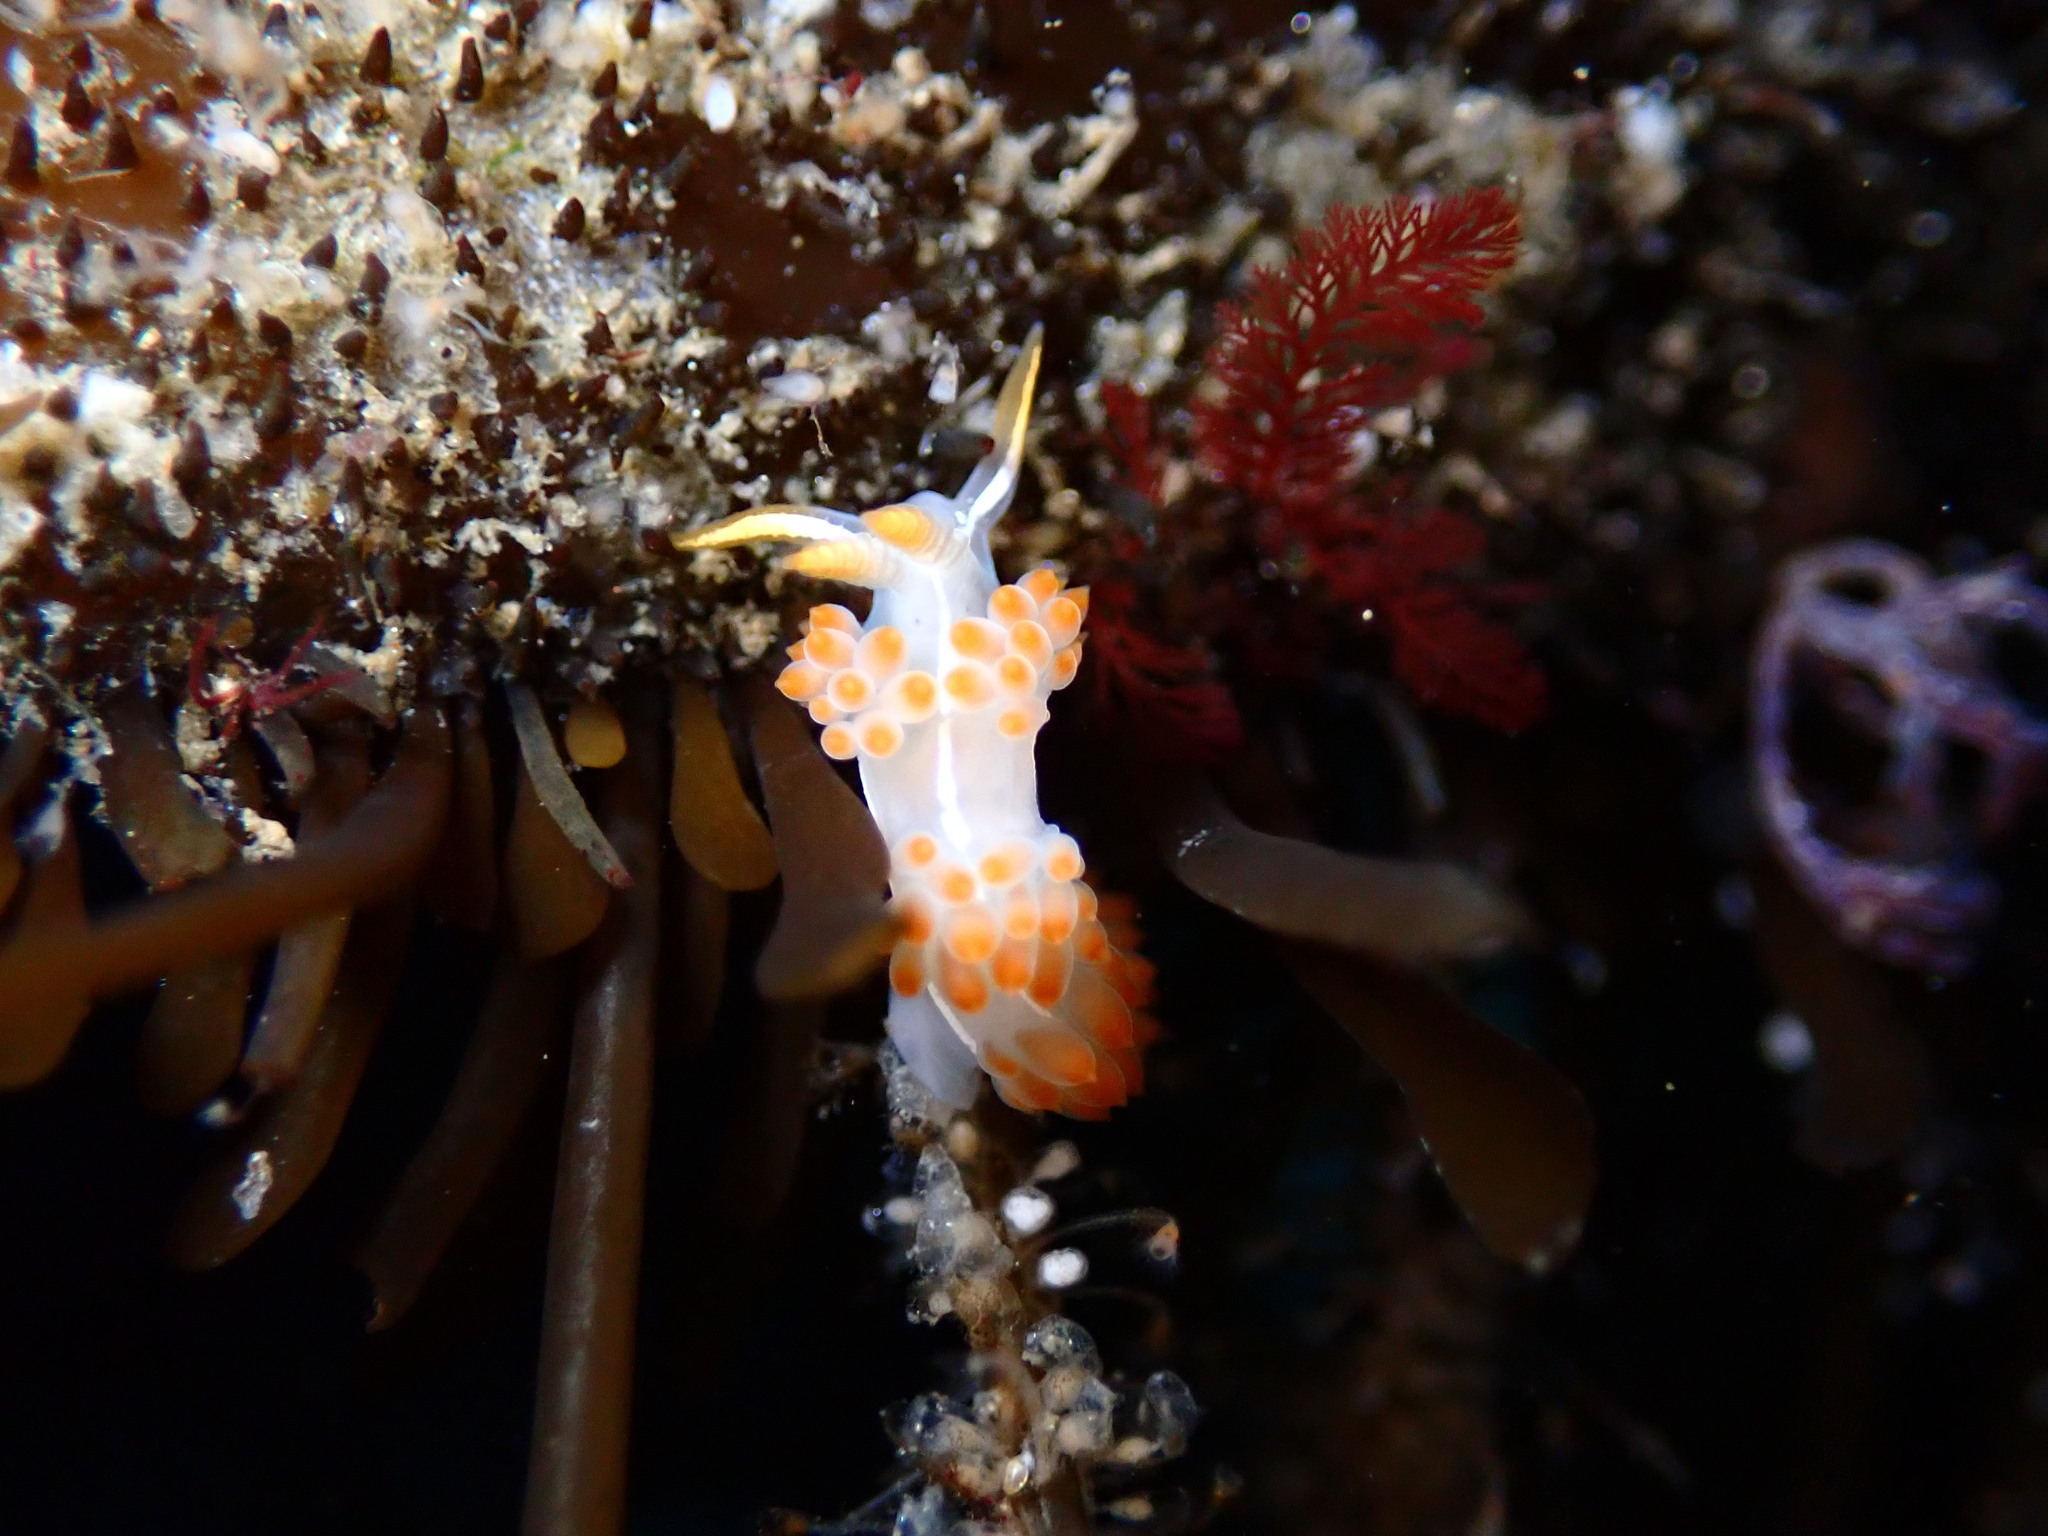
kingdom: Animalia
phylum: Mollusca
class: Gastropoda
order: Nudibranchia
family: Coryphellidae
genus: Coryphella
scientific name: Coryphella trilineata
